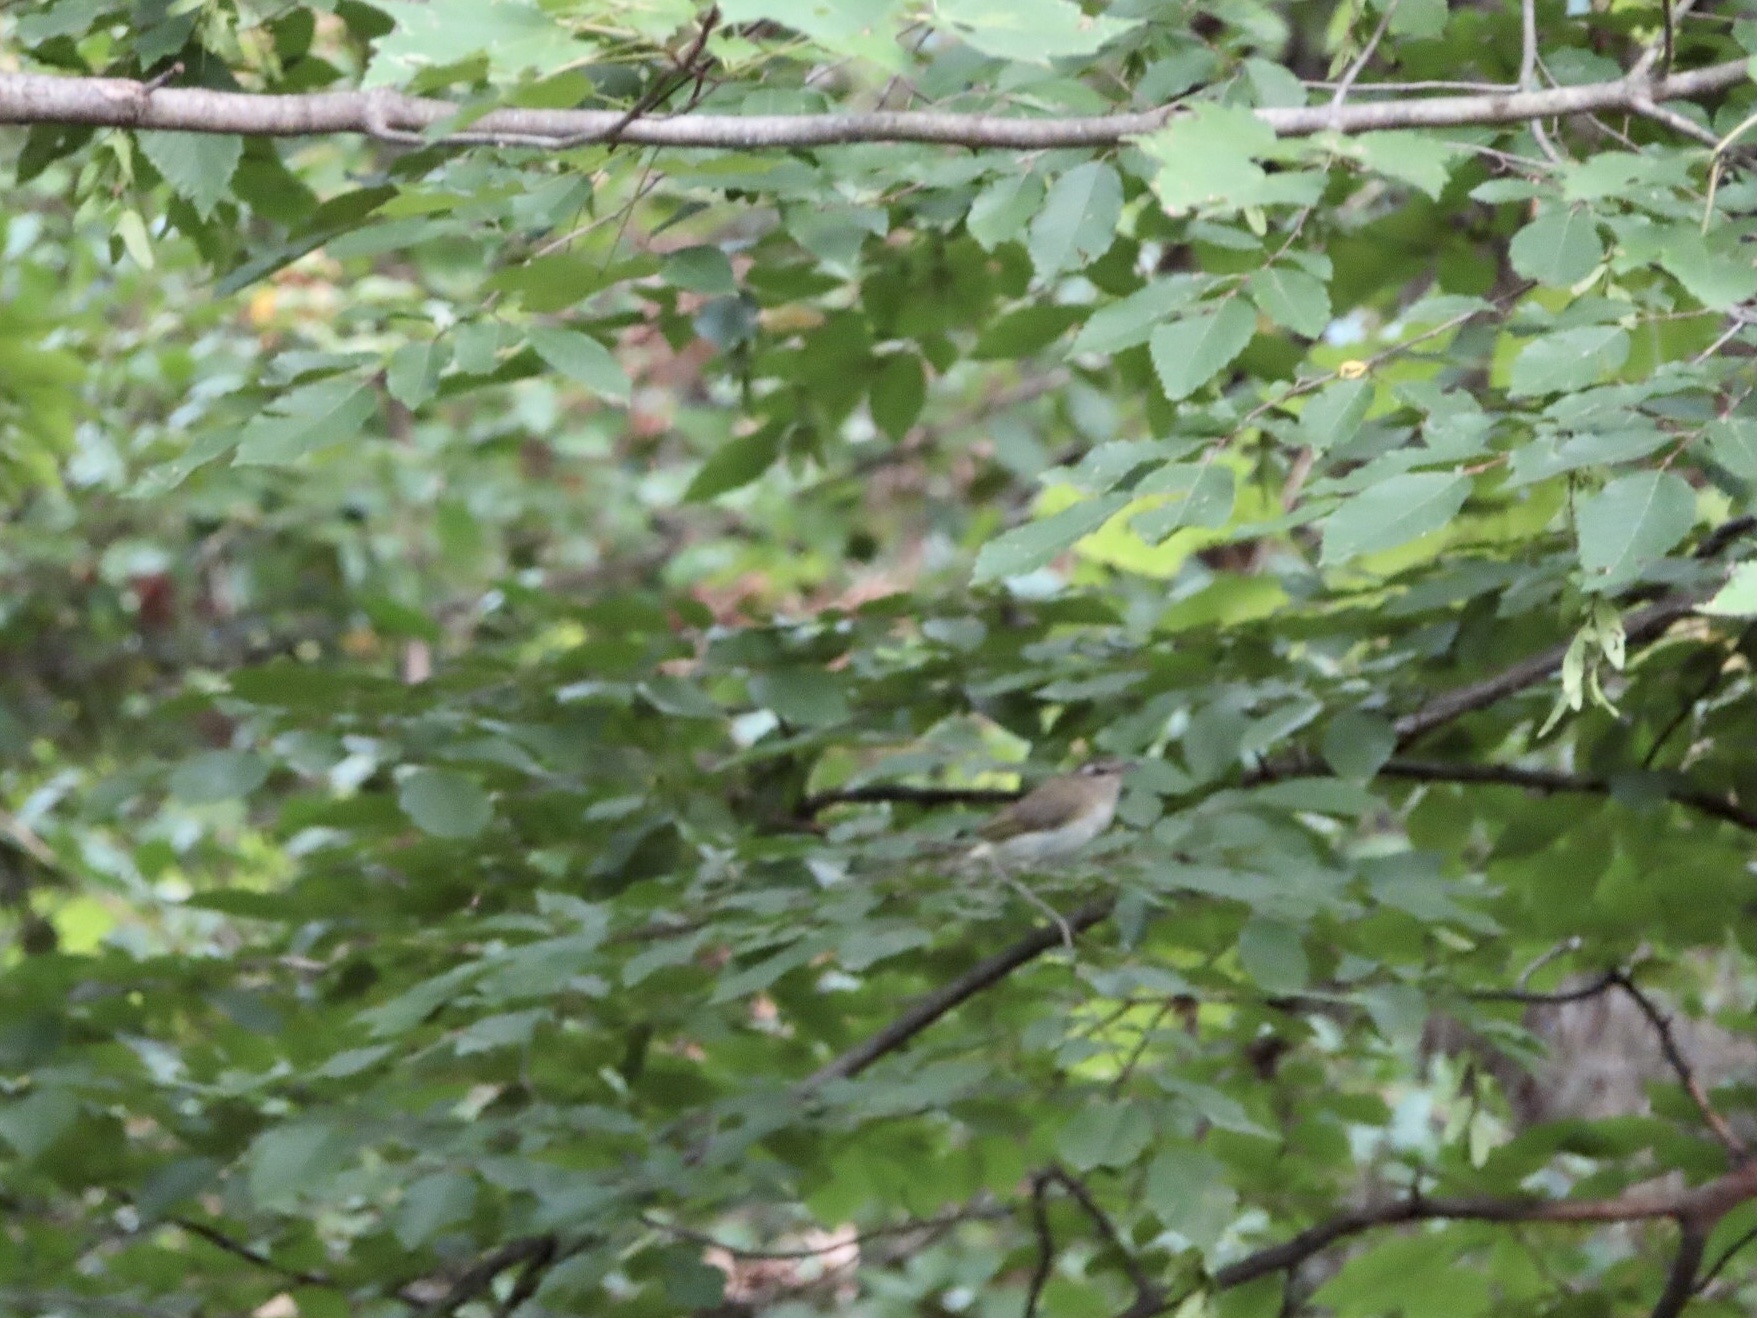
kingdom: Animalia
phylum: Chordata
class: Aves
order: Passeriformes
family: Vireonidae
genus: Vireo
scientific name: Vireo olivaceus
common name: Red-eyed vireo
